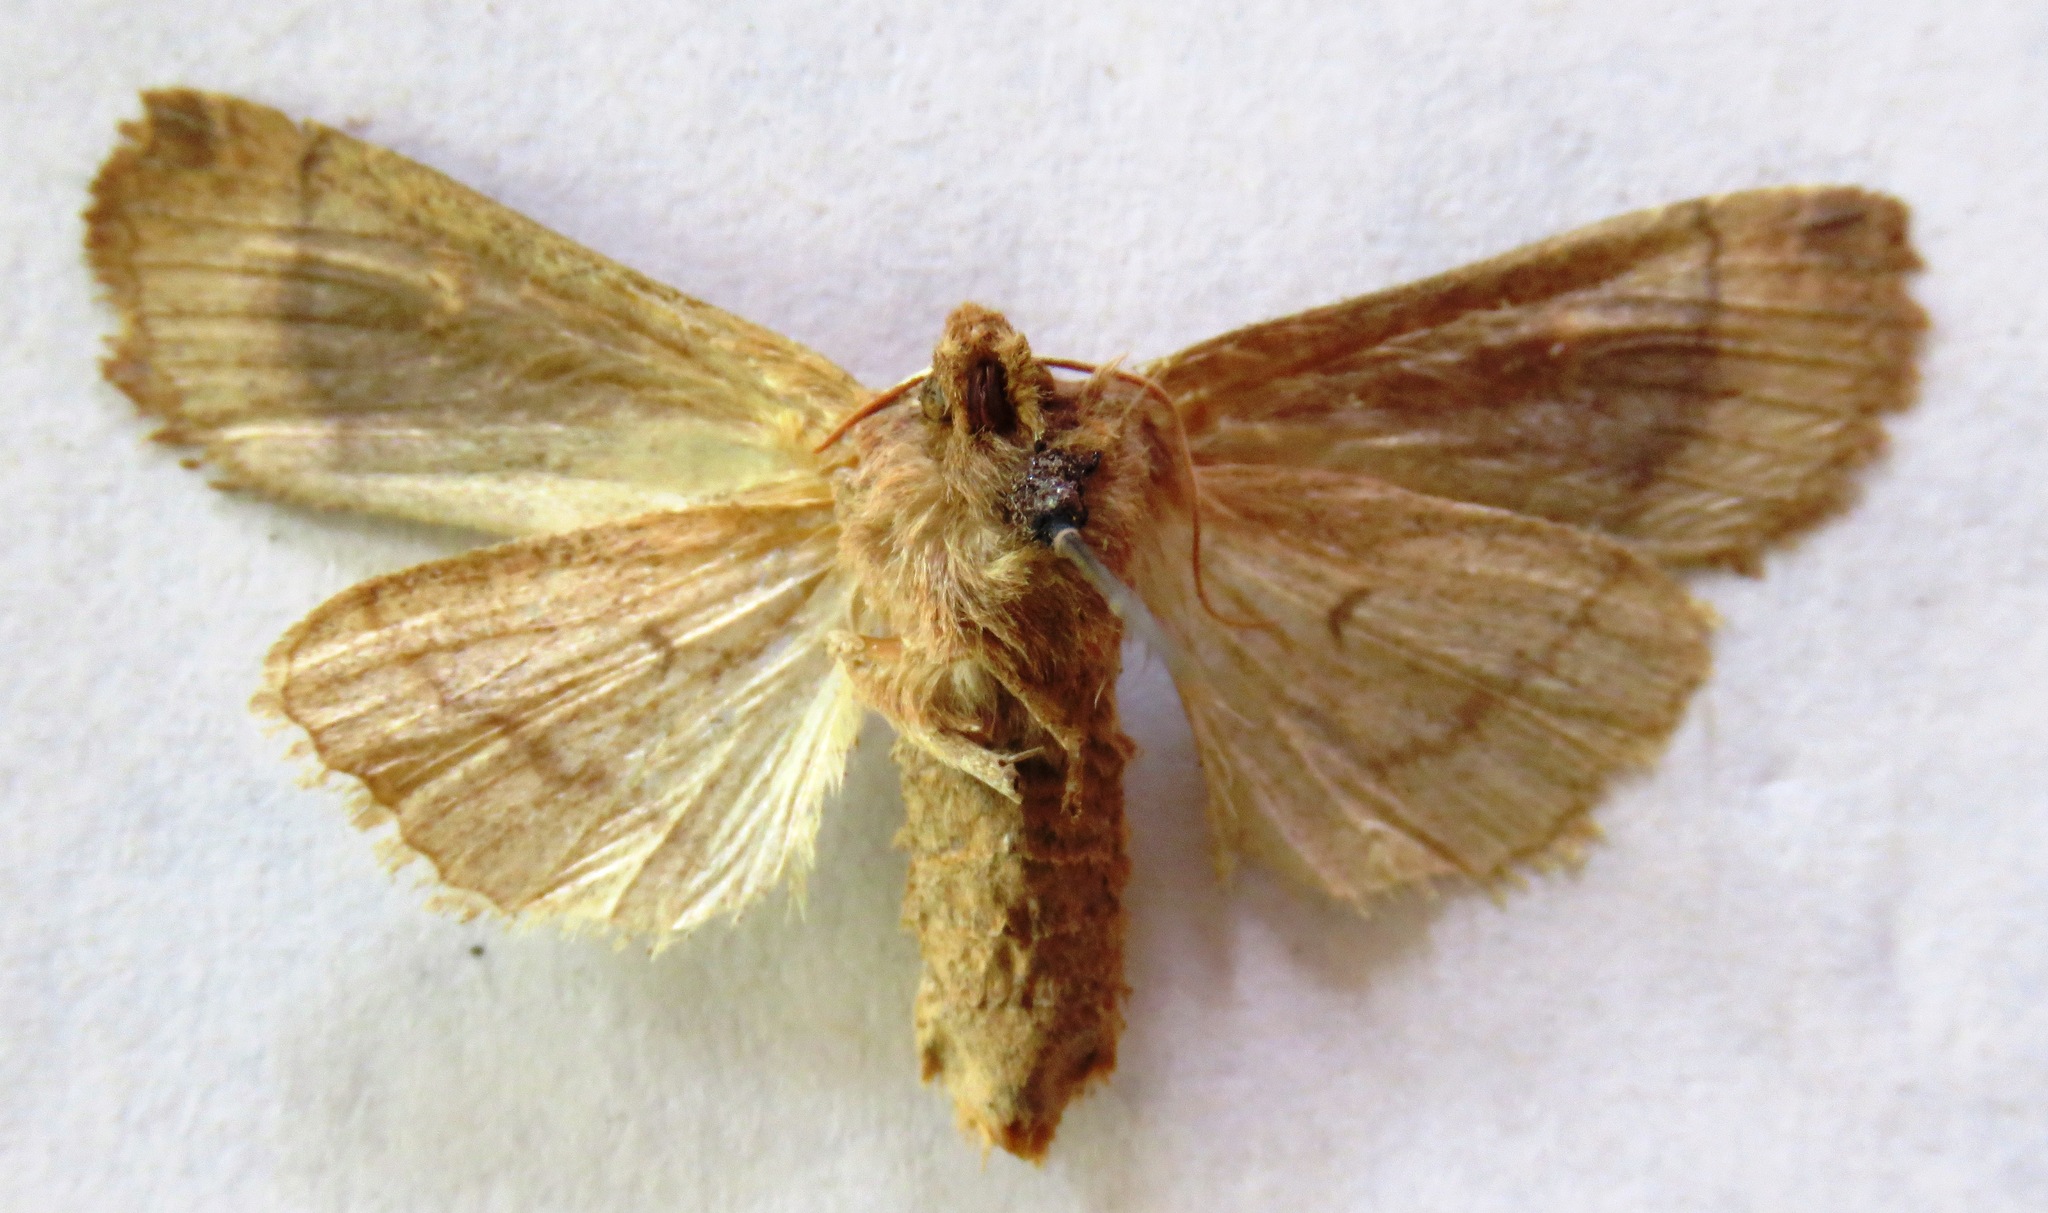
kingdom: Animalia
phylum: Arthropoda
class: Insecta
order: Lepidoptera
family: Noctuidae
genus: Eupsilia
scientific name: Eupsilia transversa
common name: Satellite
